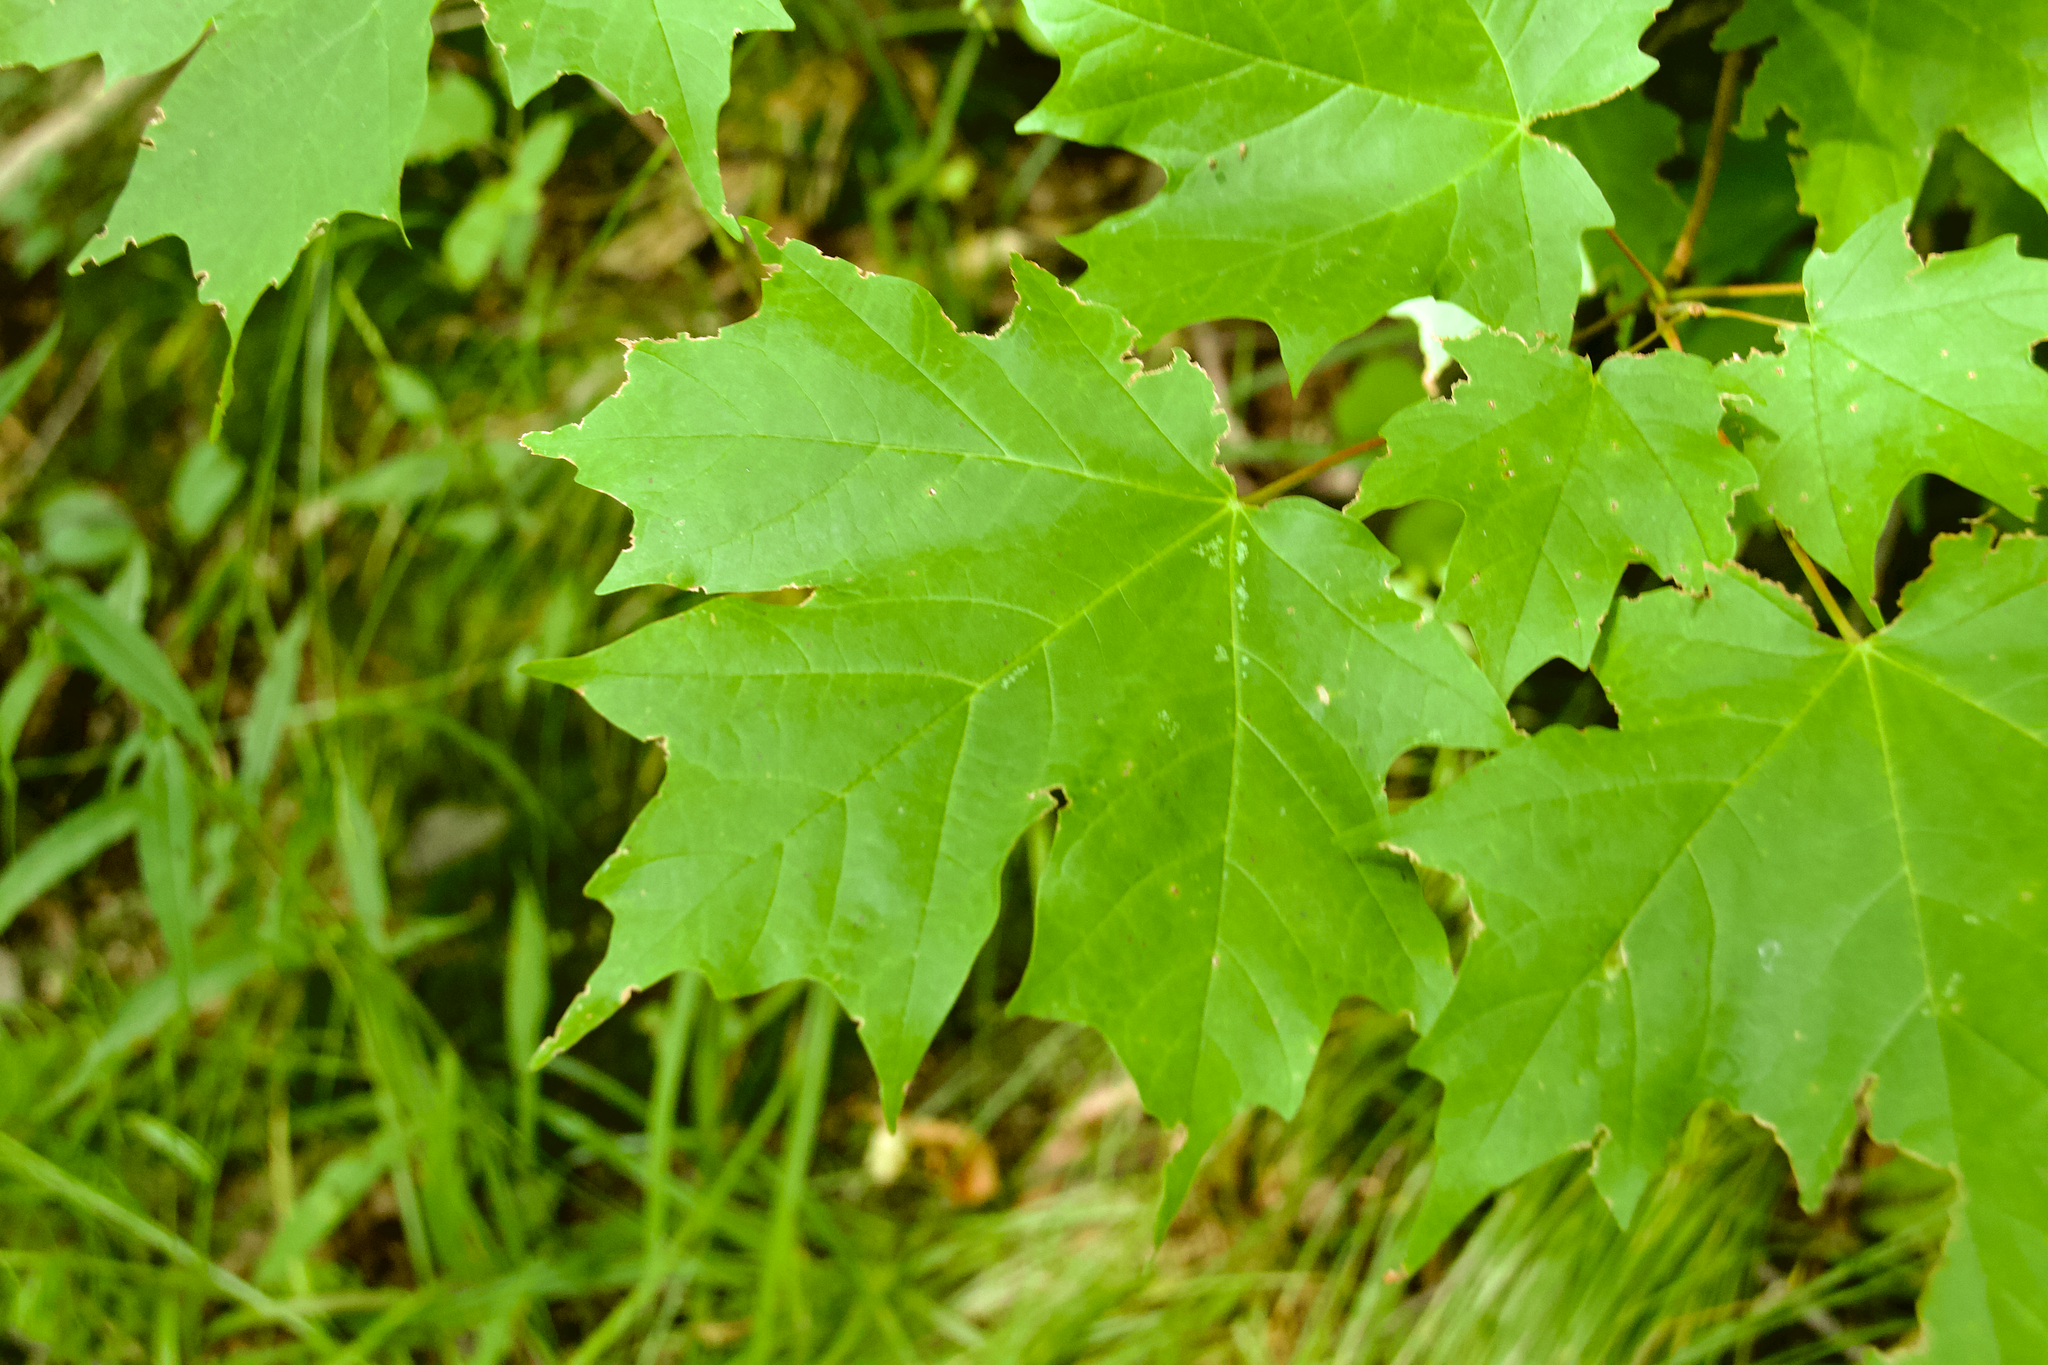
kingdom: Plantae
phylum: Tracheophyta
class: Magnoliopsida
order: Sapindales
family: Sapindaceae
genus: Acer
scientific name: Acer saccharum
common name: Sugar maple
